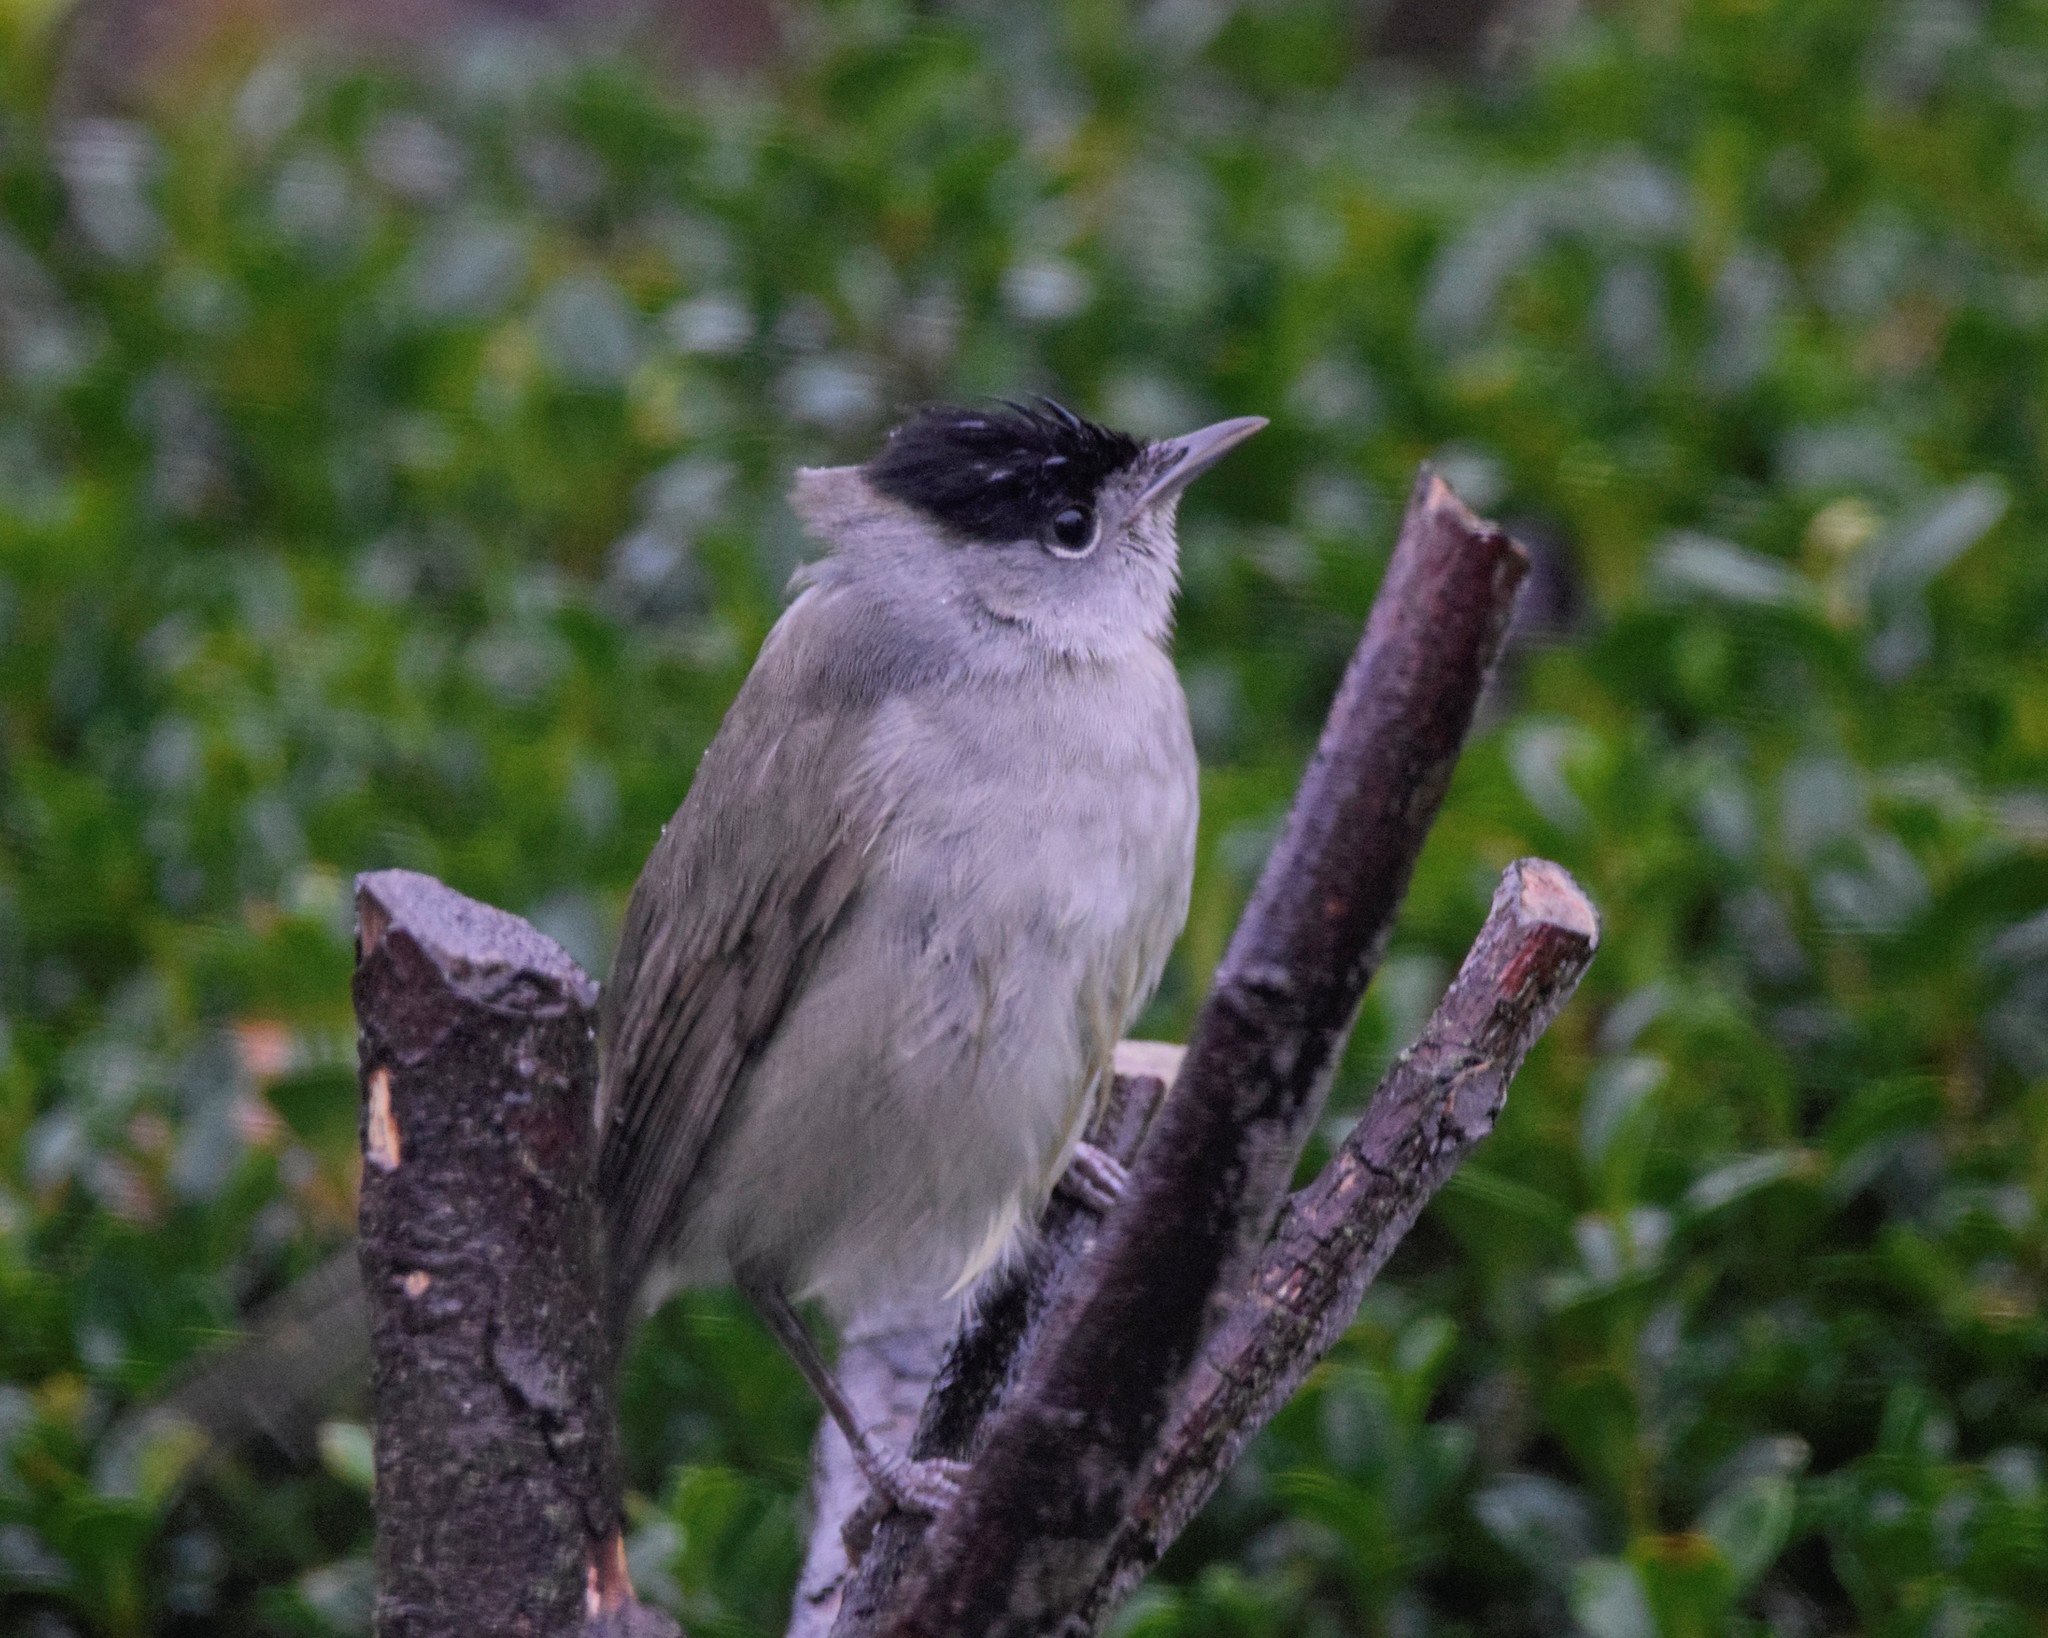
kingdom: Animalia
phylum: Chordata
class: Aves
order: Passeriformes
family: Sylviidae
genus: Sylvia
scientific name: Sylvia atricapilla
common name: Eurasian blackcap
